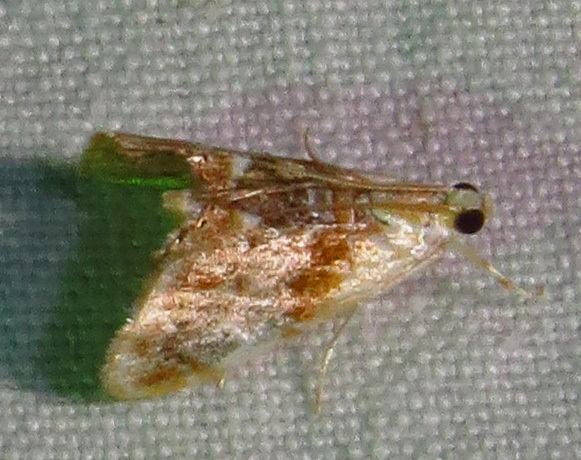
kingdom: Animalia
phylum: Arthropoda
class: Insecta
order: Lepidoptera
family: Crambidae
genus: Dicymolomia
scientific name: Dicymolomia julianalis
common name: Julia's dicymolomia moth
